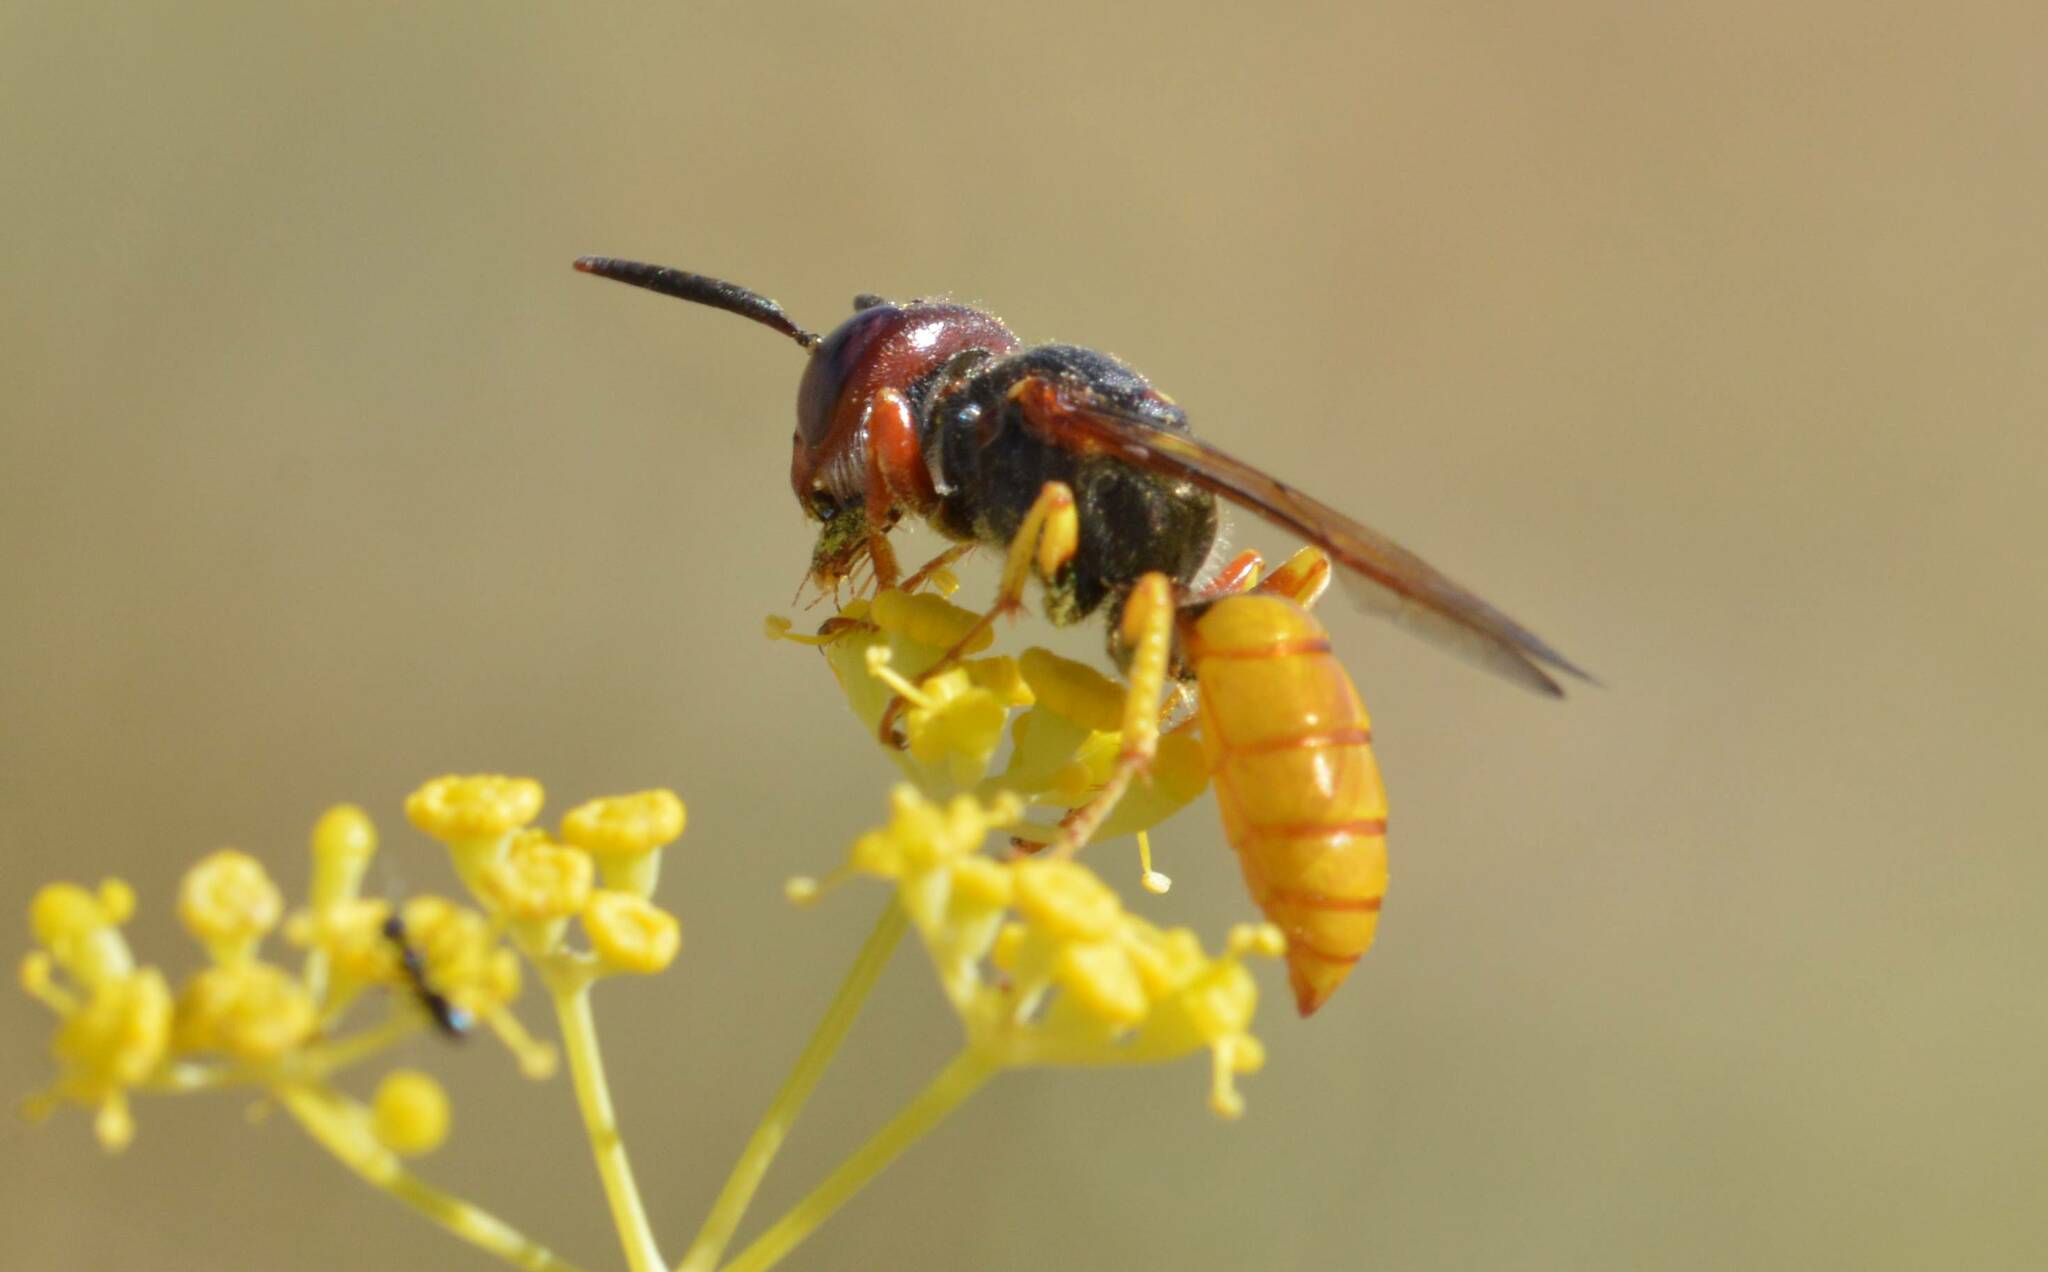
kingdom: Animalia
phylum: Arthropoda
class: Insecta
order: Hymenoptera
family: Crabronidae
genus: Philanthus
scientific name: Philanthus triangulum
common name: Bee wolf
